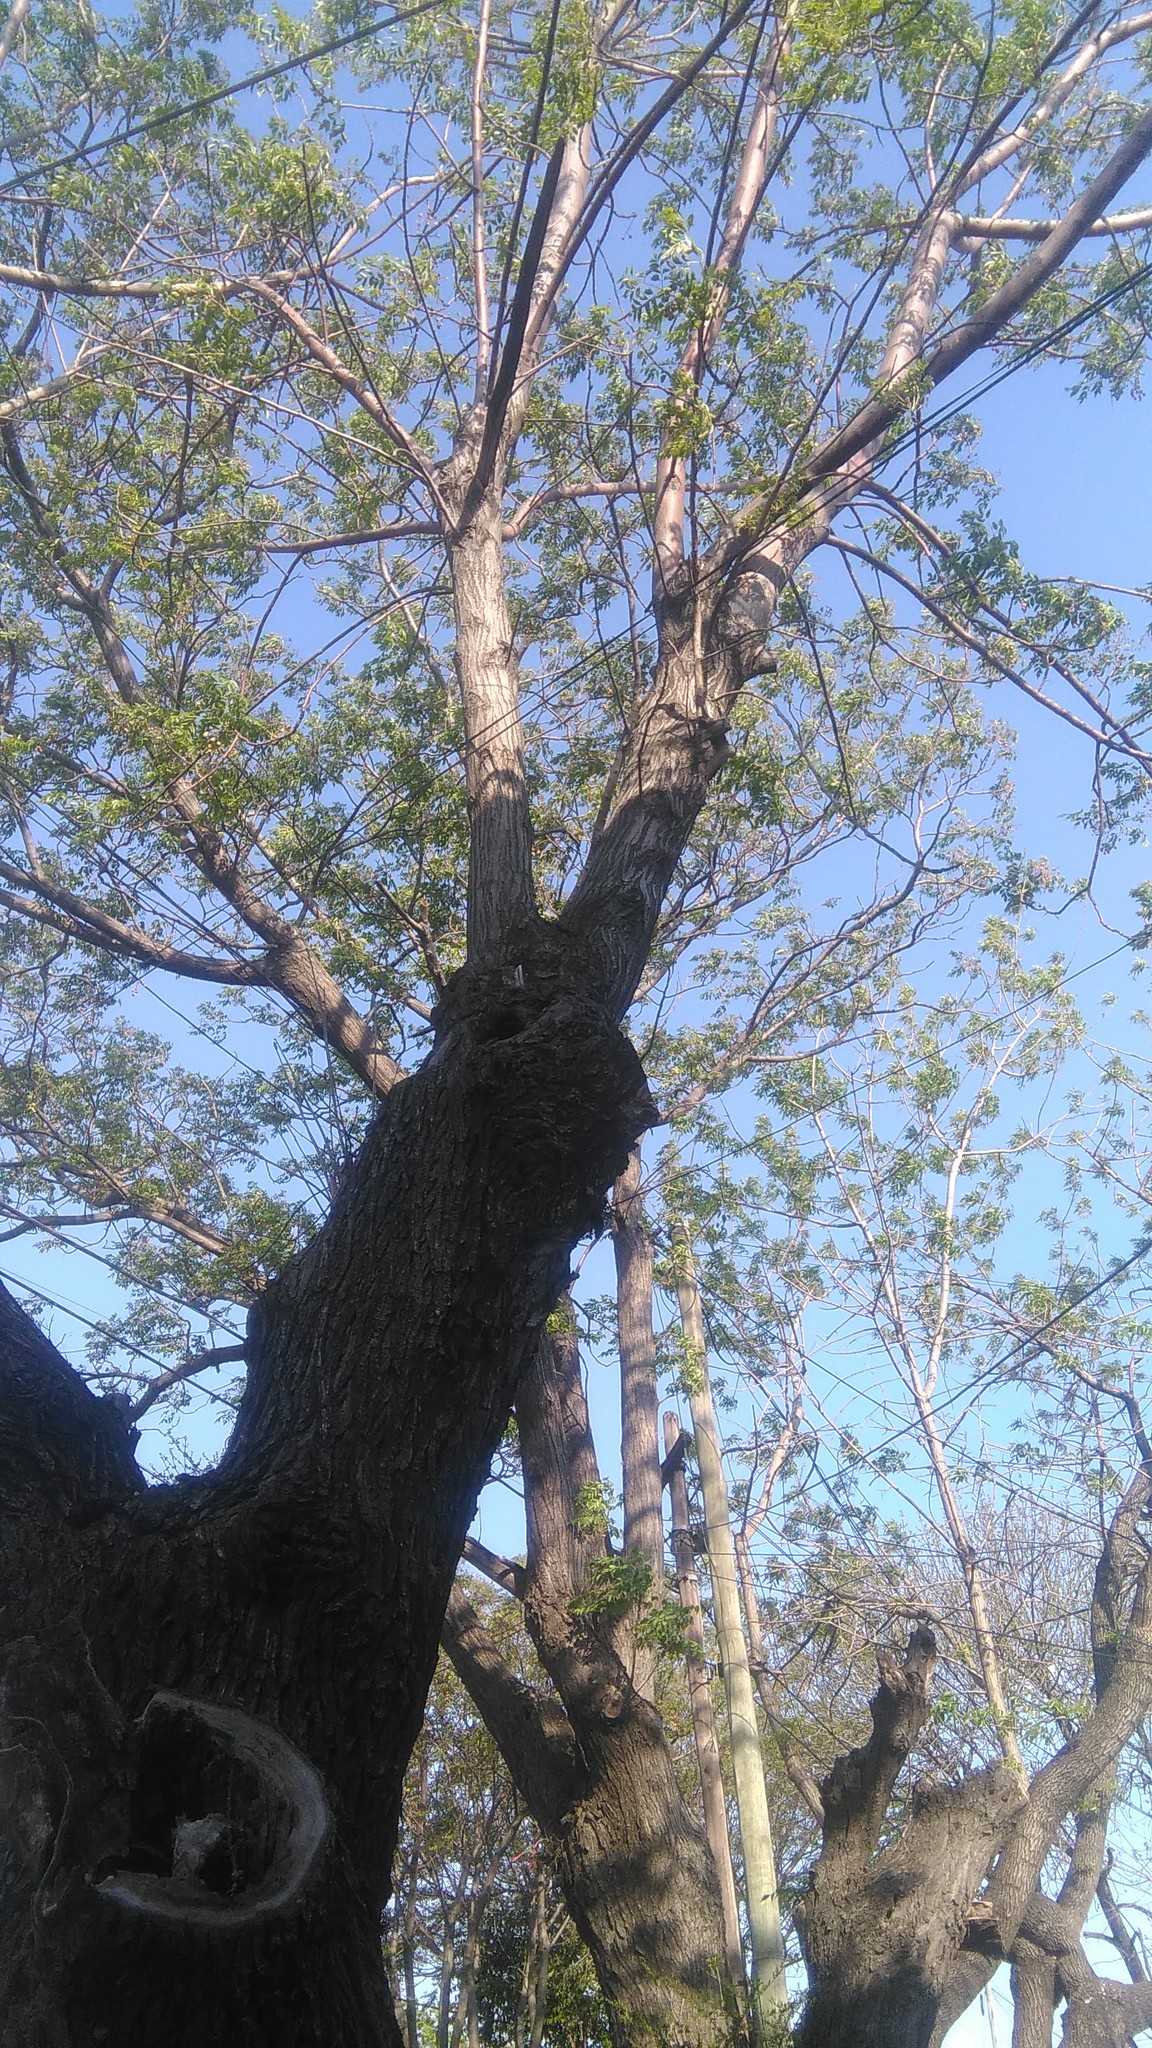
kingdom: Plantae
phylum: Tracheophyta
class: Magnoliopsida
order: Sapindales
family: Meliaceae
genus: Melia
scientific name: Melia azedarach
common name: Chinaberrytree
